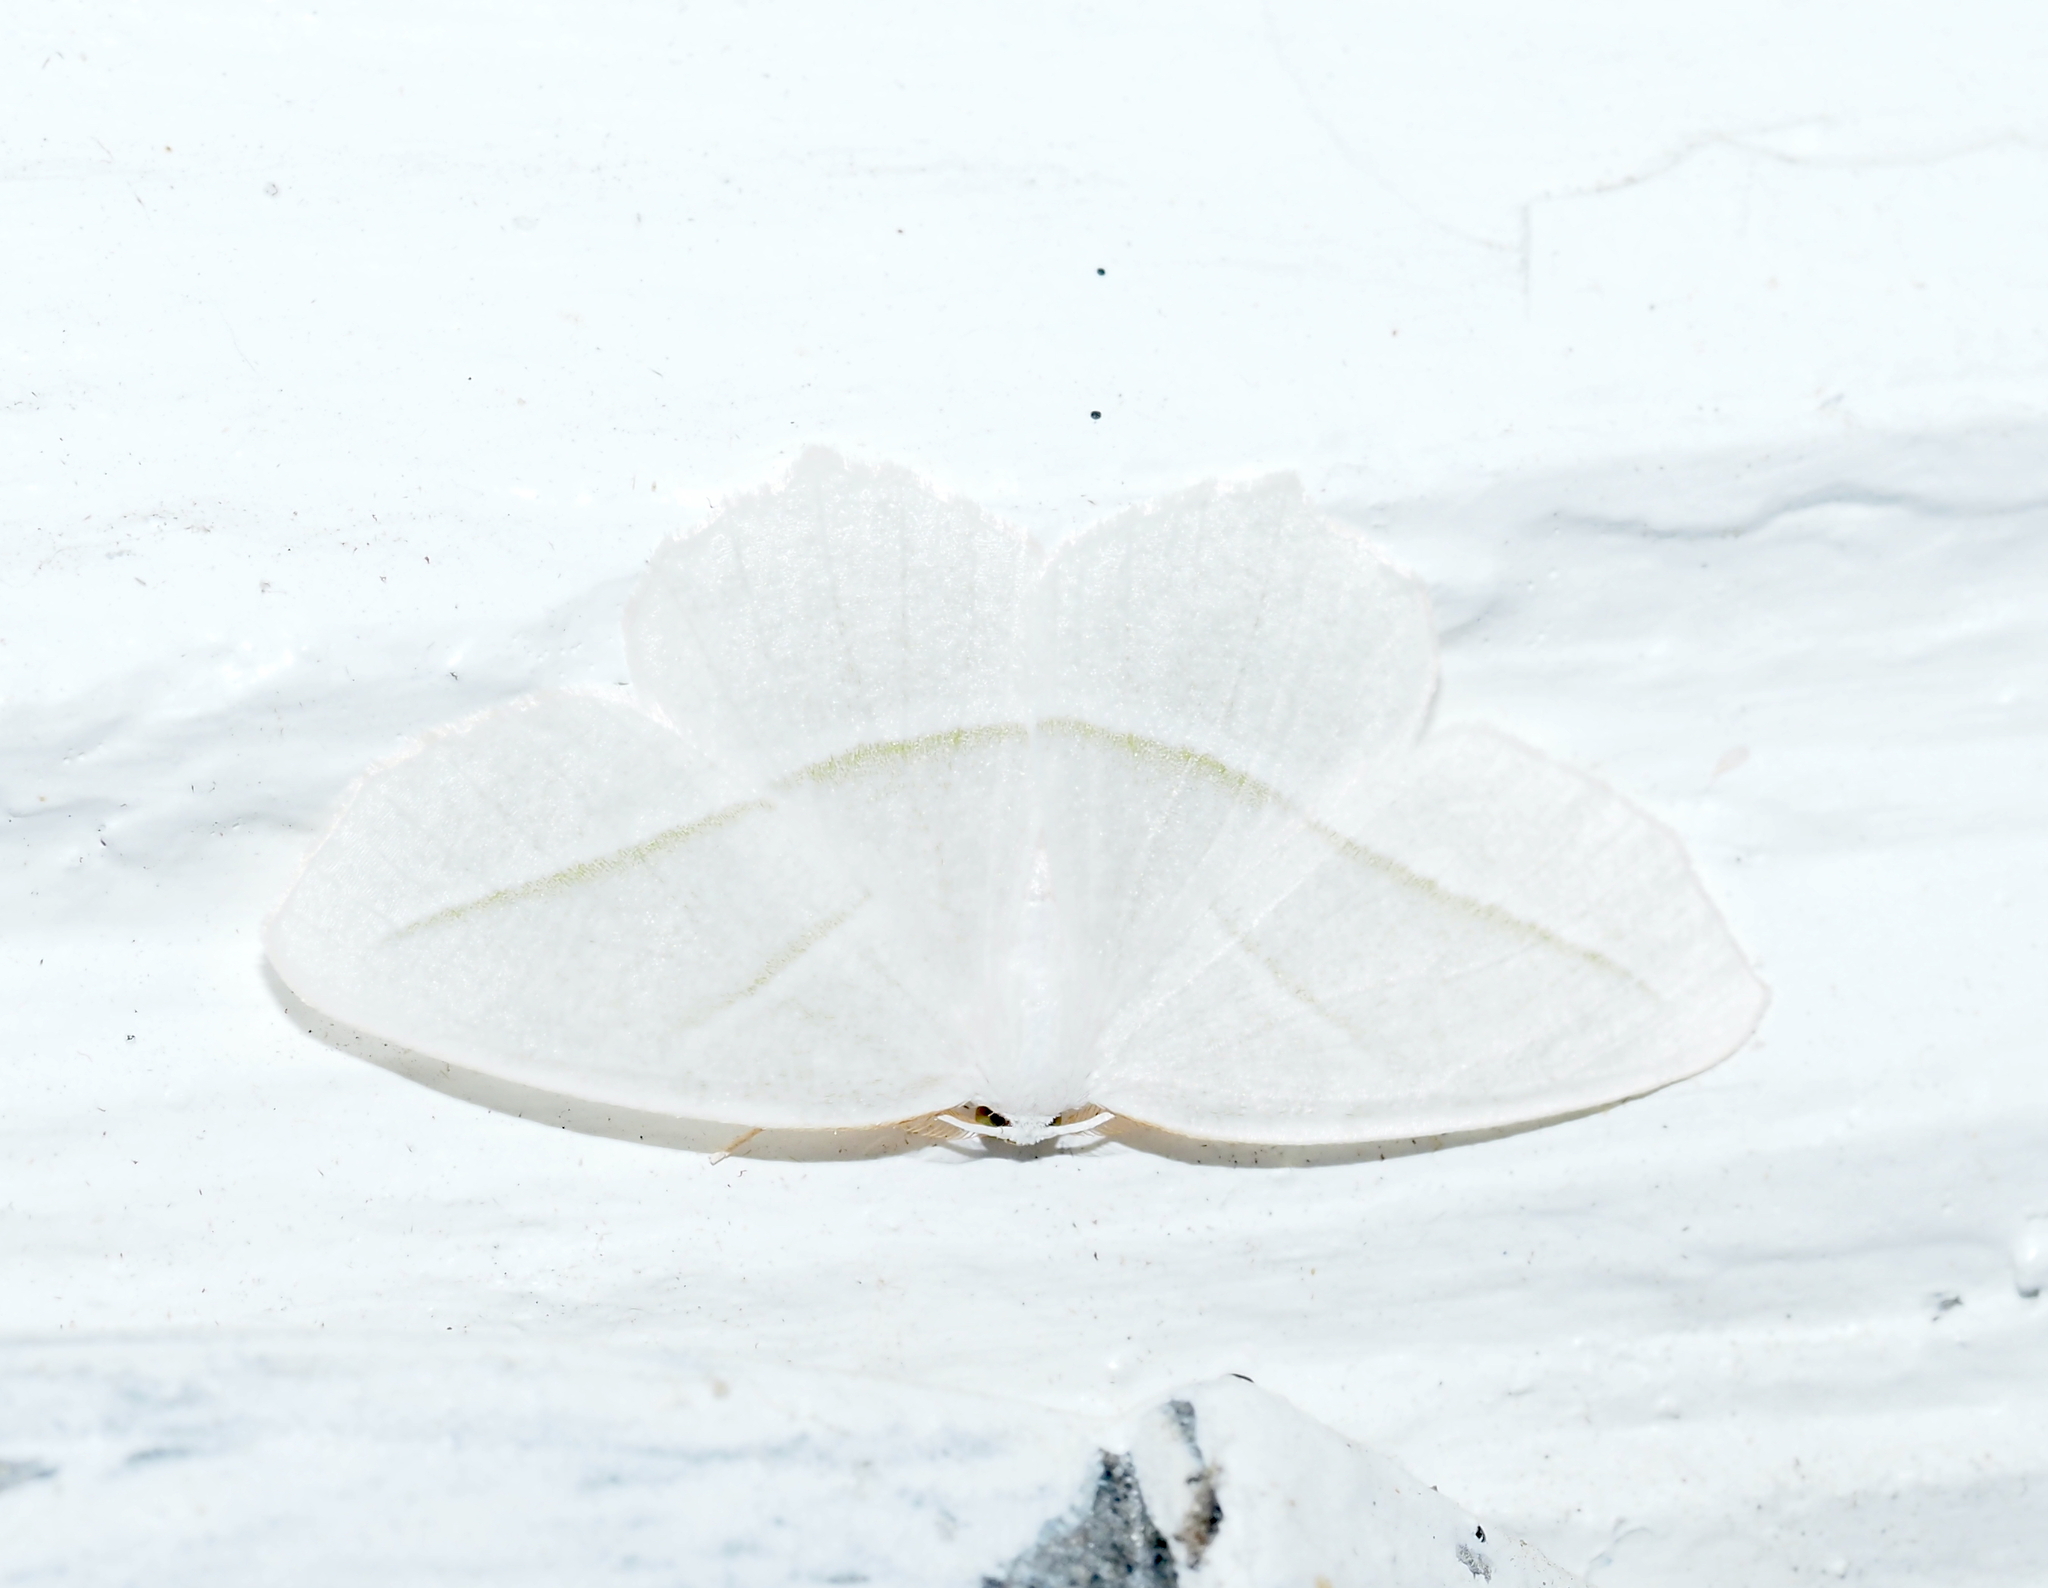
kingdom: Animalia
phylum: Arthropoda
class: Insecta
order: Lepidoptera
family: Geometridae
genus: Campaea
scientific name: Campaea perlata
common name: Fringed looper
